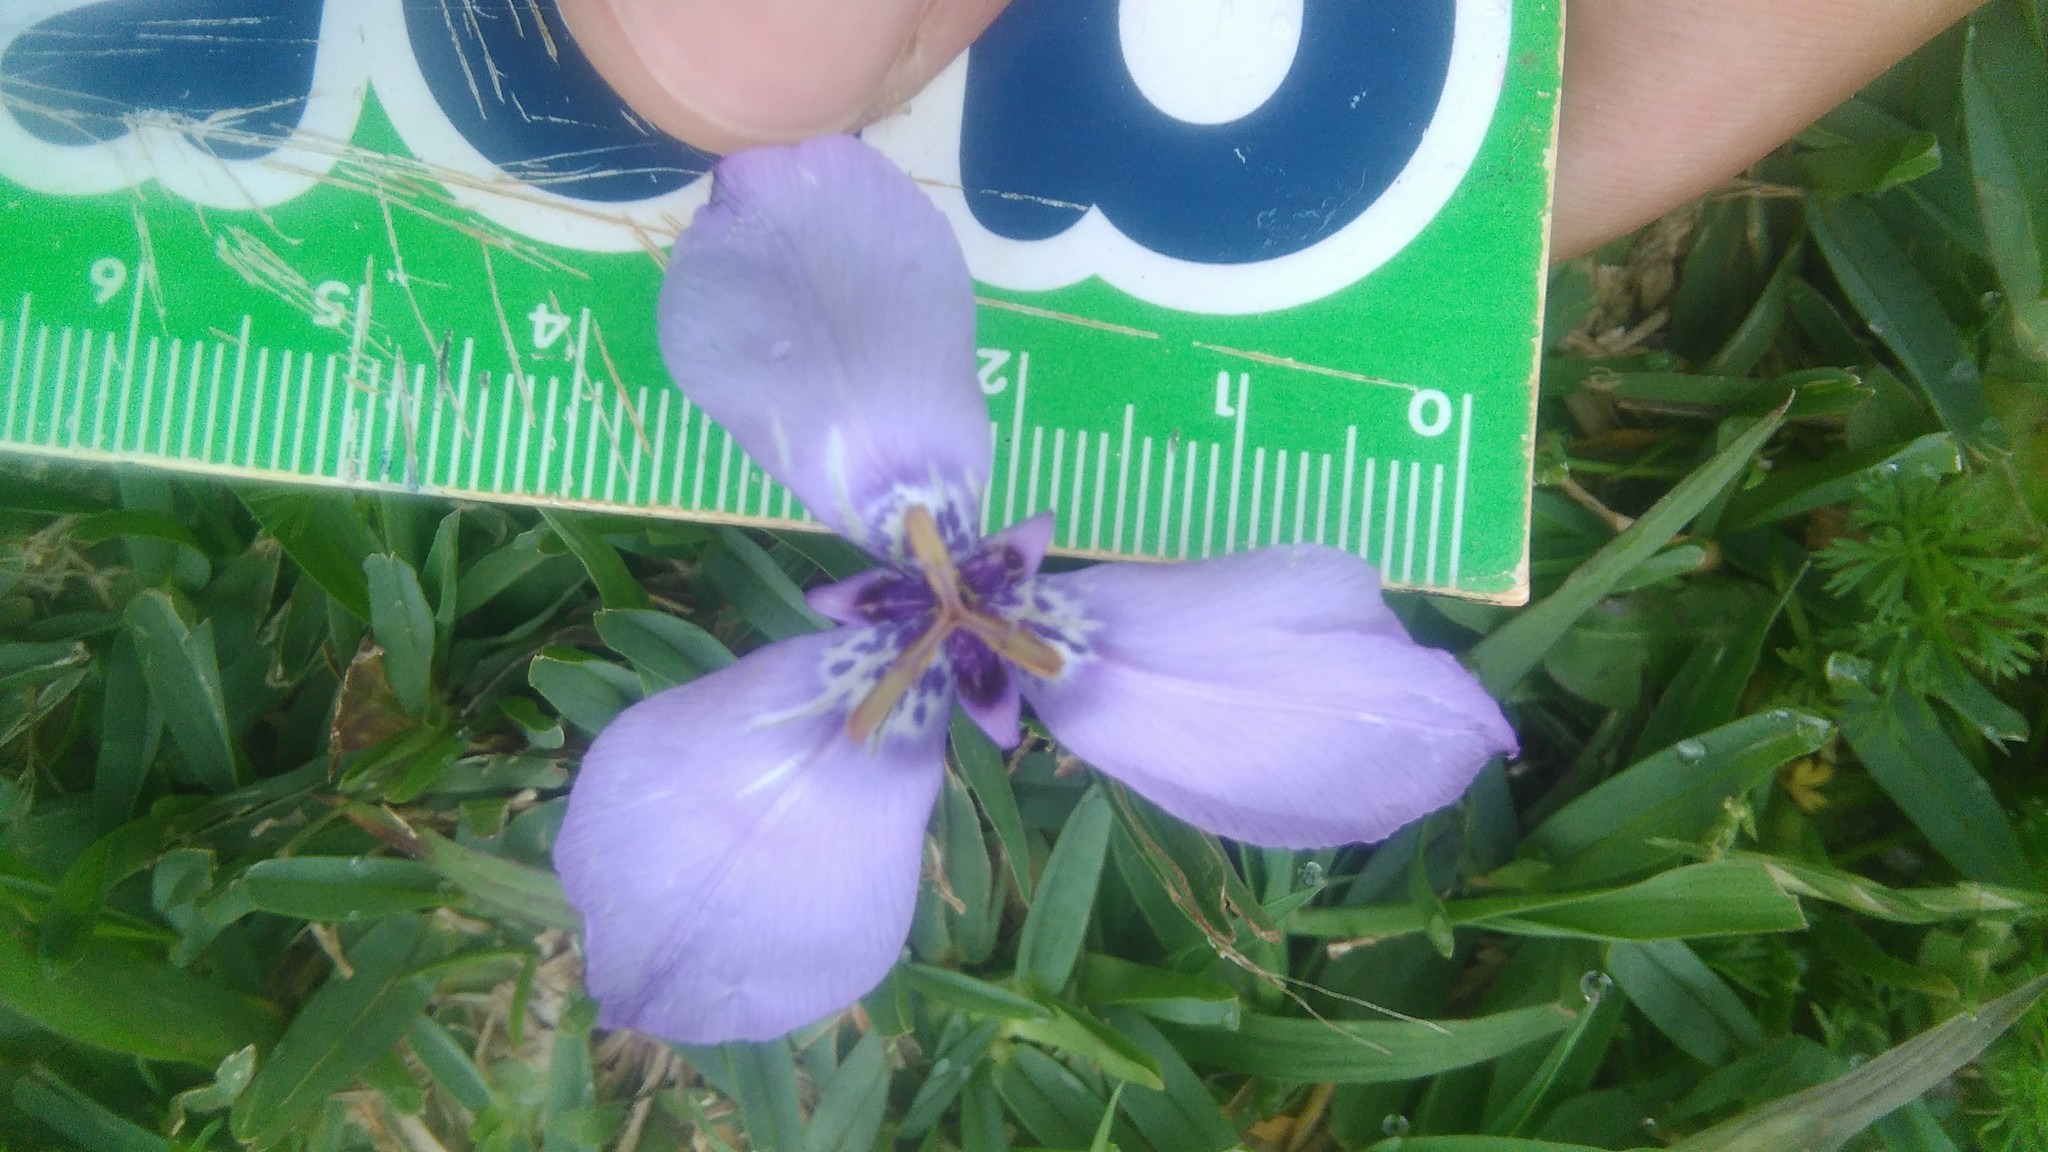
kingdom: Plantae
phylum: Tracheophyta
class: Liliopsida
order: Asparagales
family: Iridaceae
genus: Herbertia
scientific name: Herbertia lahue
